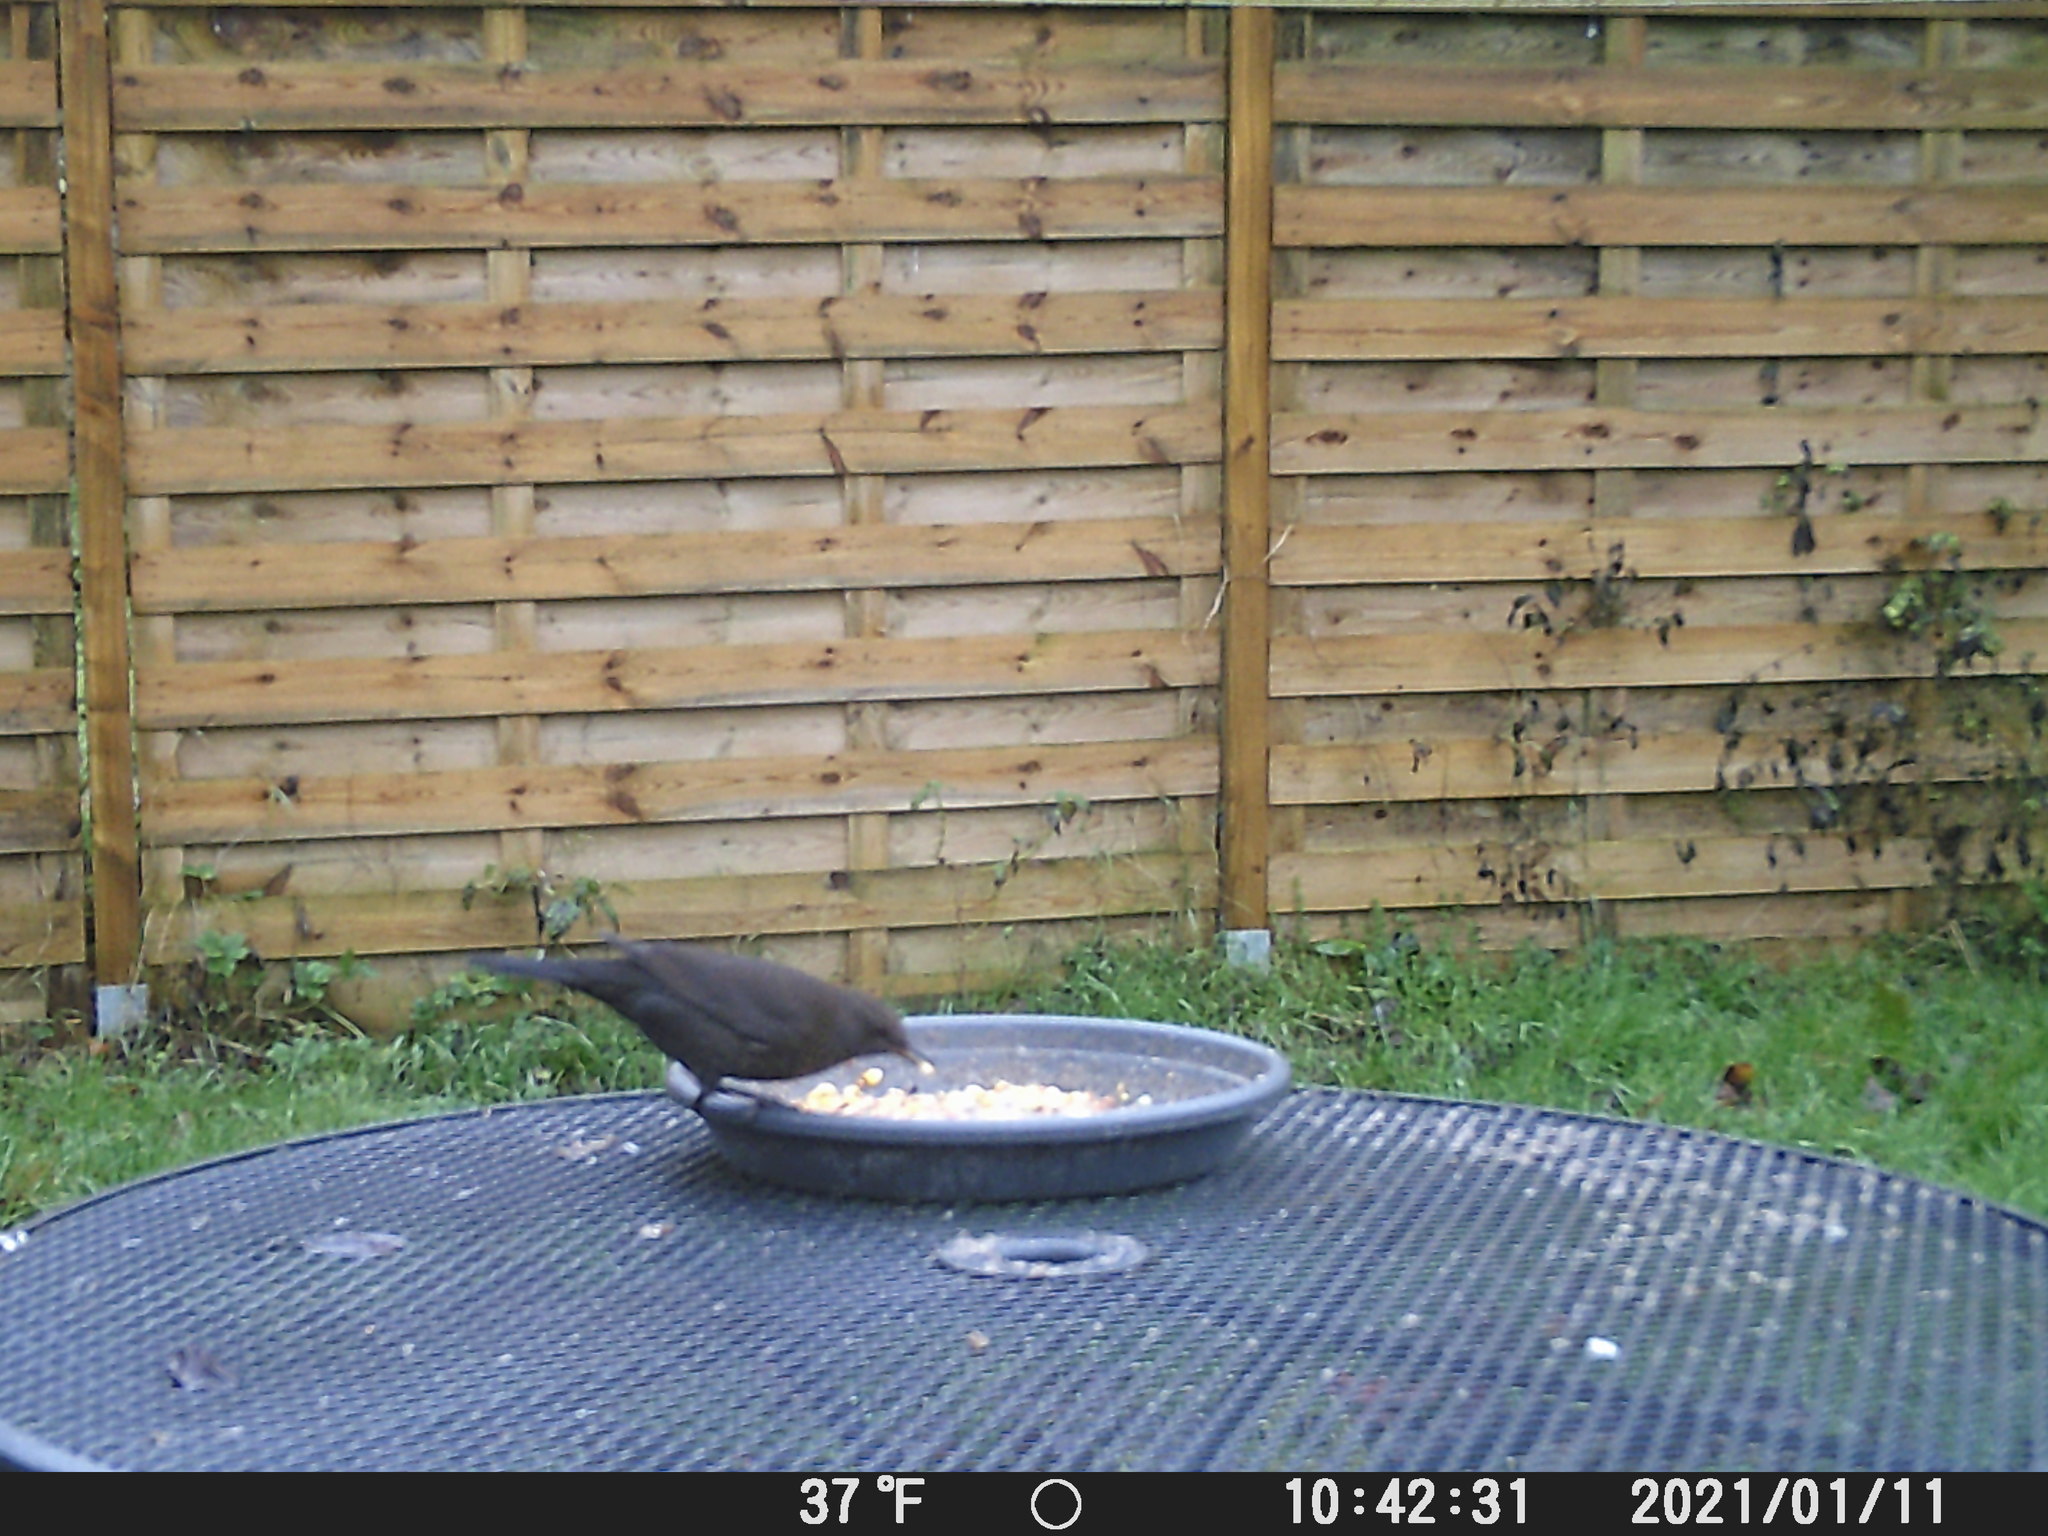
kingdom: Animalia
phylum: Chordata
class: Aves
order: Passeriformes
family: Turdidae
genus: Turdus
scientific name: Turdus merula
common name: Common blackbird
